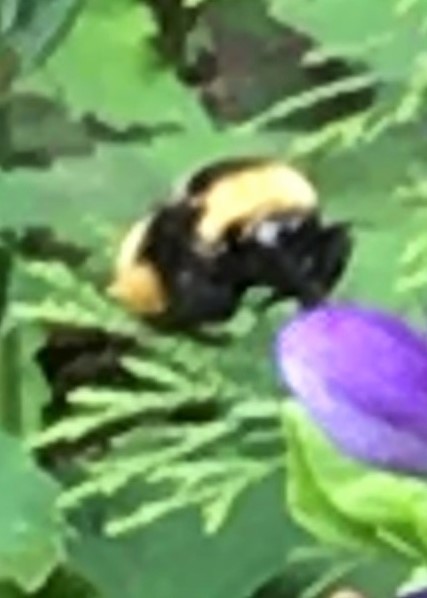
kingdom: Animalia
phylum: Arthropoda
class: Insecta
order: Hymenoptera
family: Apidae
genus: Bombus
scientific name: Bombus auricomus
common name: Black and gold bumble bee
